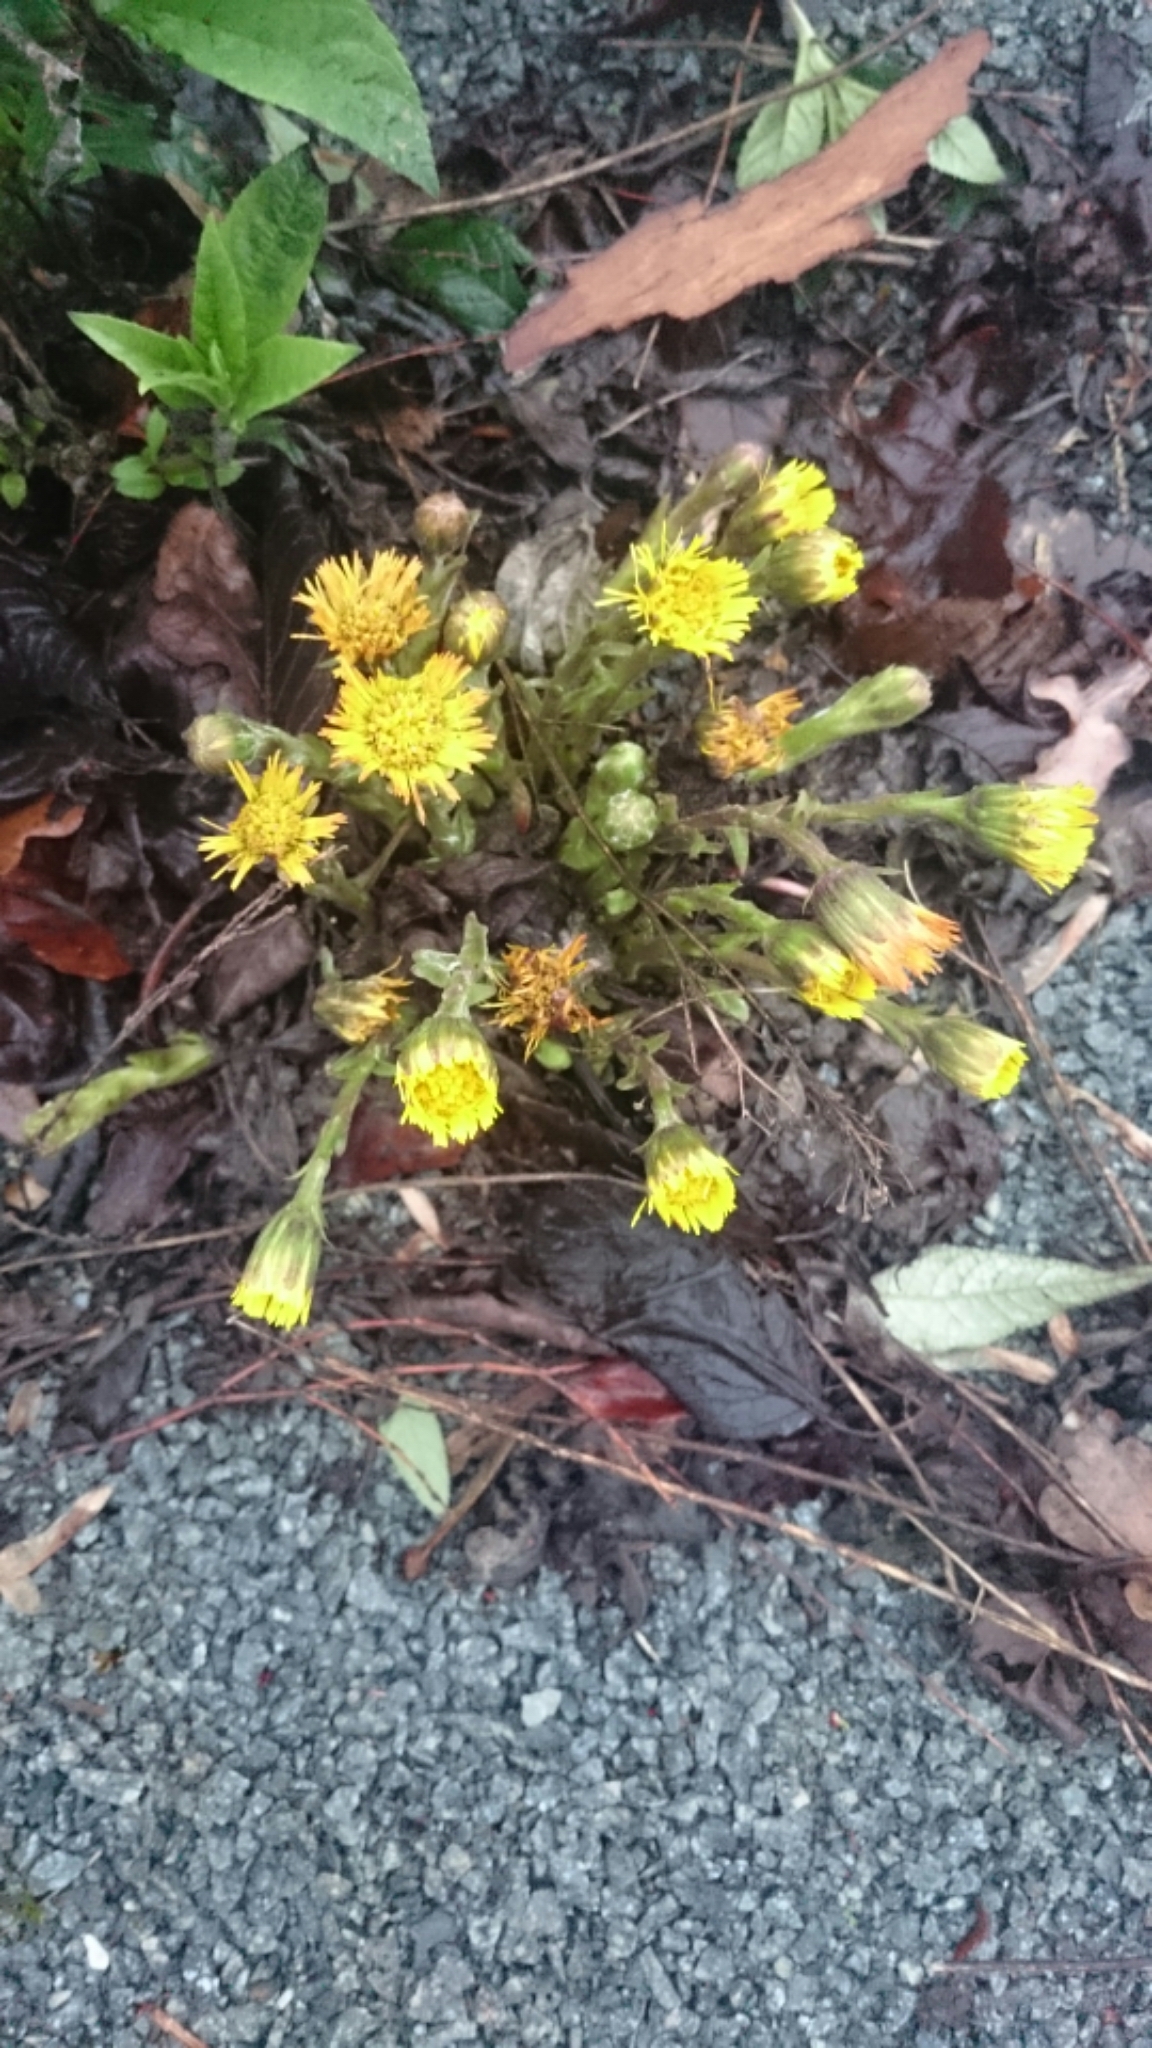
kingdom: Plantae
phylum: Tracheophyta
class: Magnoliopsida
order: Asterales
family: Asteraceae
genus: Tussilago
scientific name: Tussilago farfara
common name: Coltsfoot
